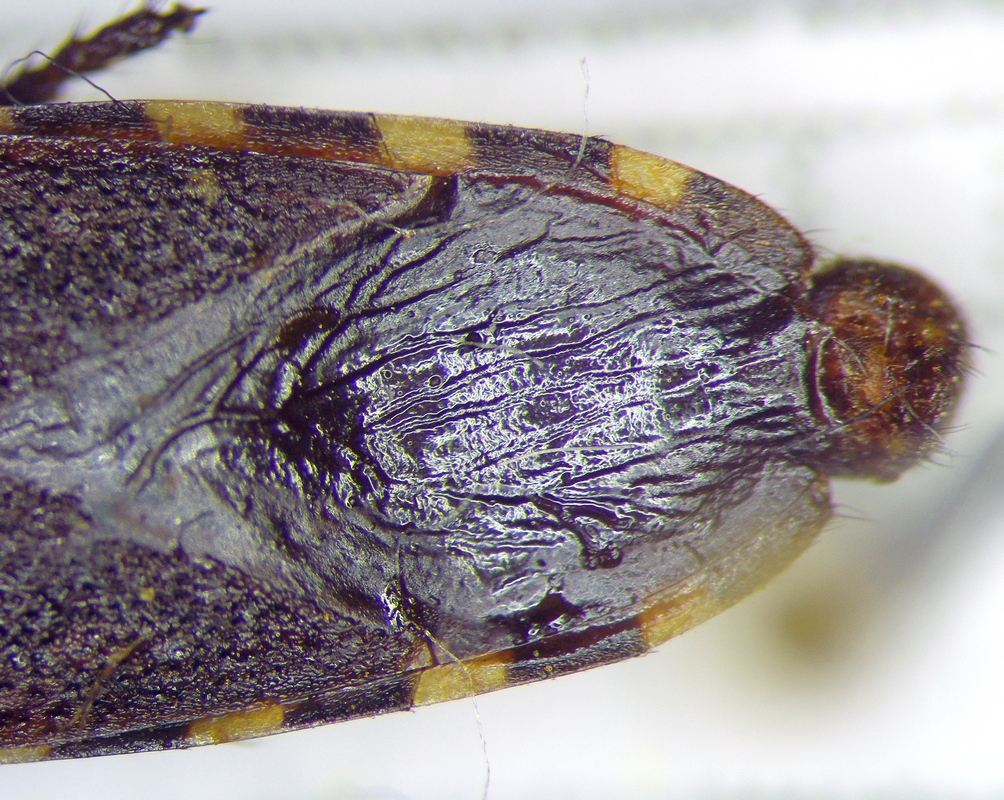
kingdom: Animalia
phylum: Arthropoda
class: Insecta
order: Hemiptera
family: Stenocephalidae
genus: Dicranocephalus
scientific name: Dicranocephalus albipes
